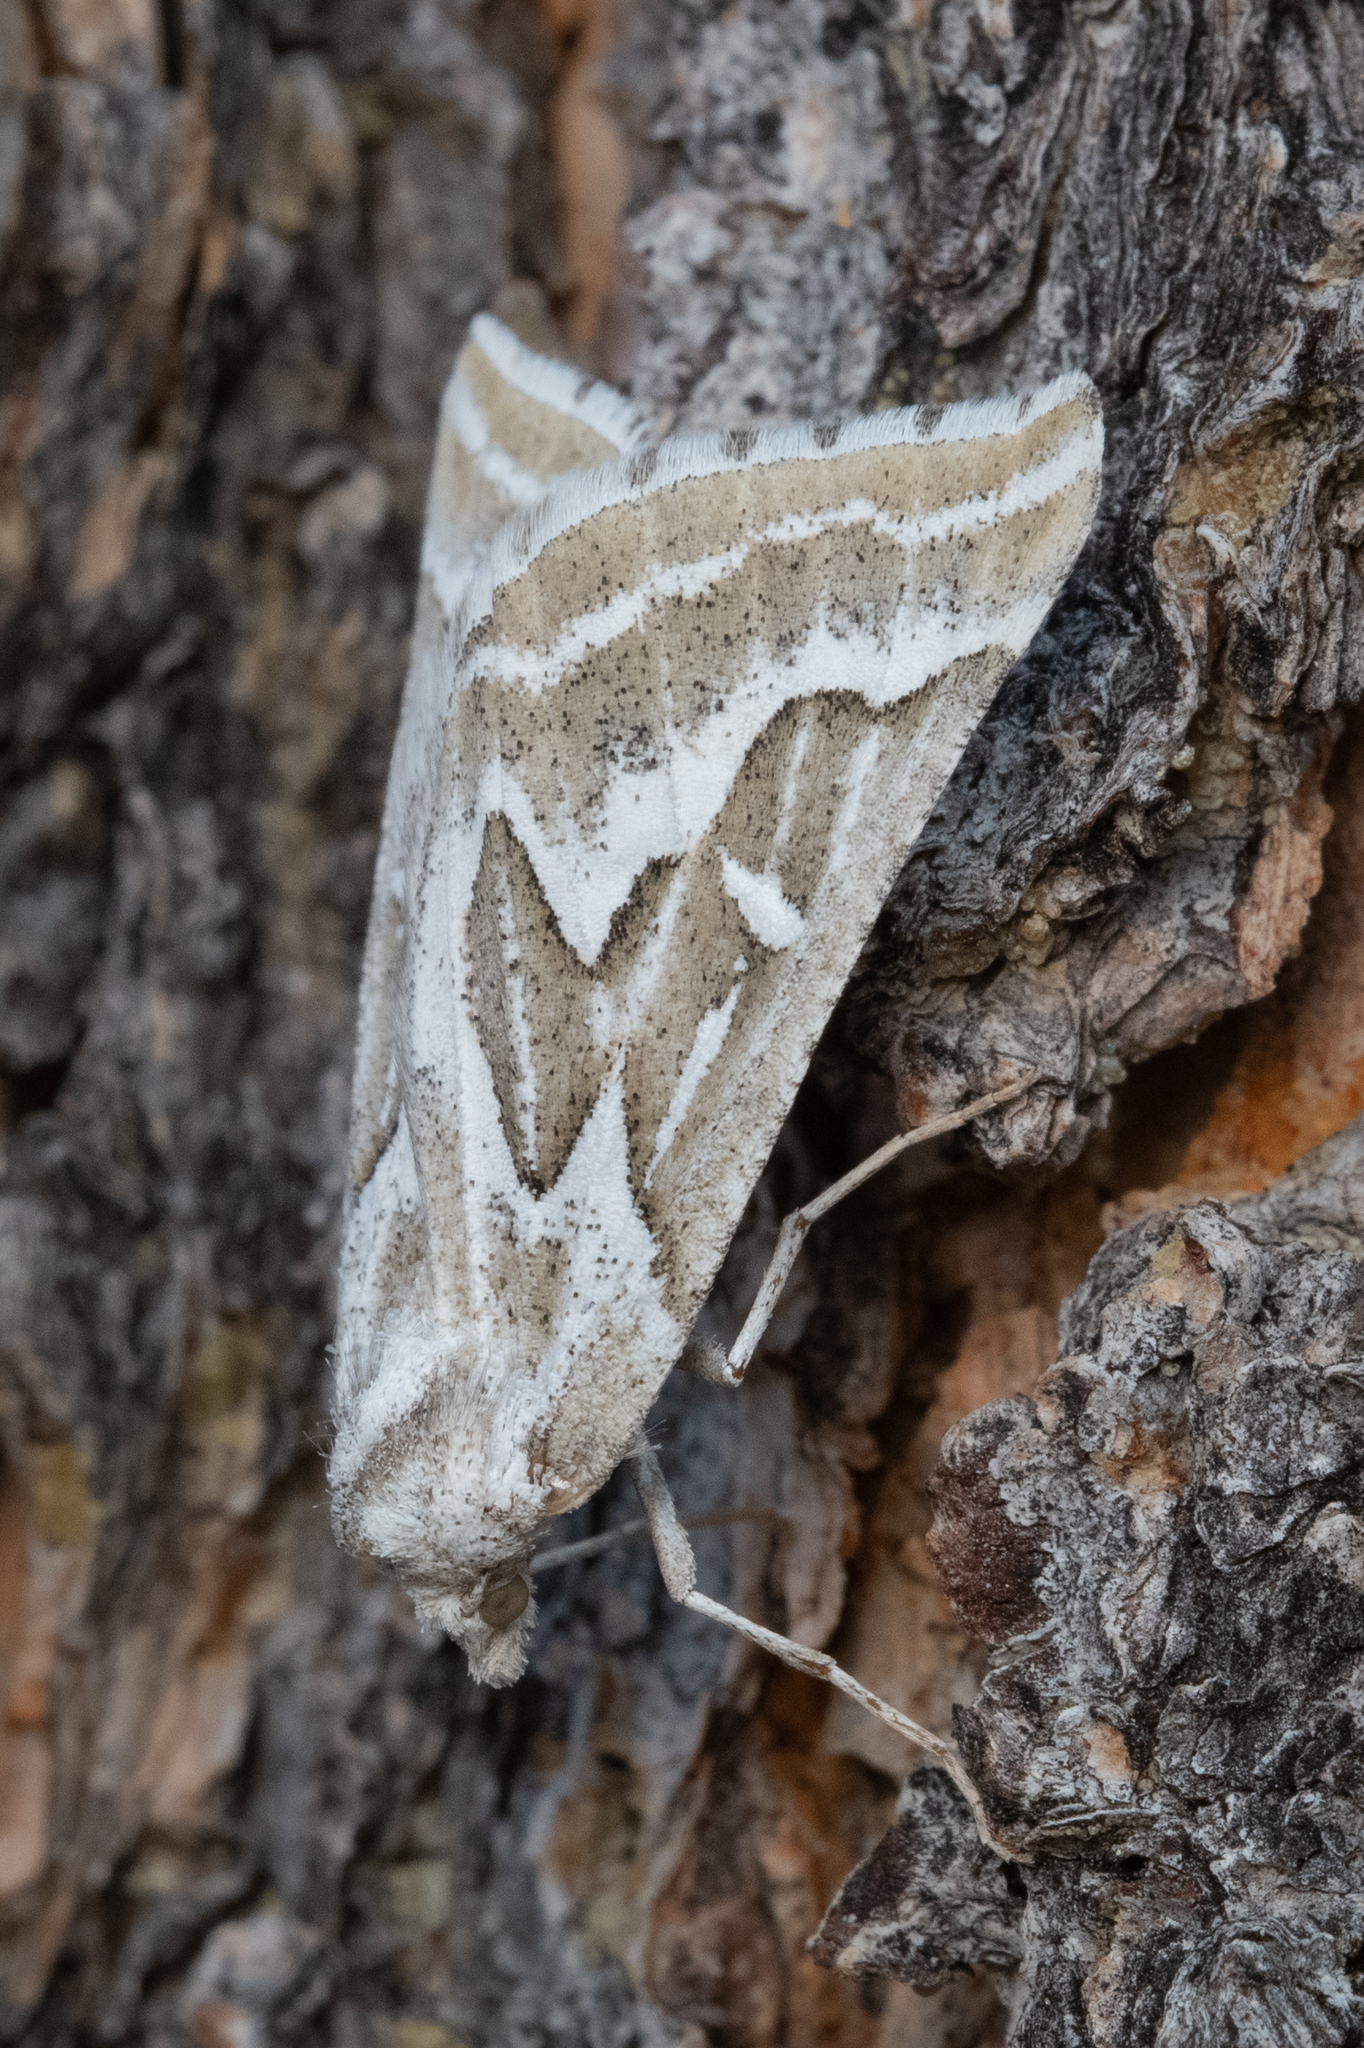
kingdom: Animalia
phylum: Arthropoda
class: Insecta
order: Lepidoptera
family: Geometridae
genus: Plataea
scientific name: Plataea trilinearia
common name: Sagebrush girdle moth
